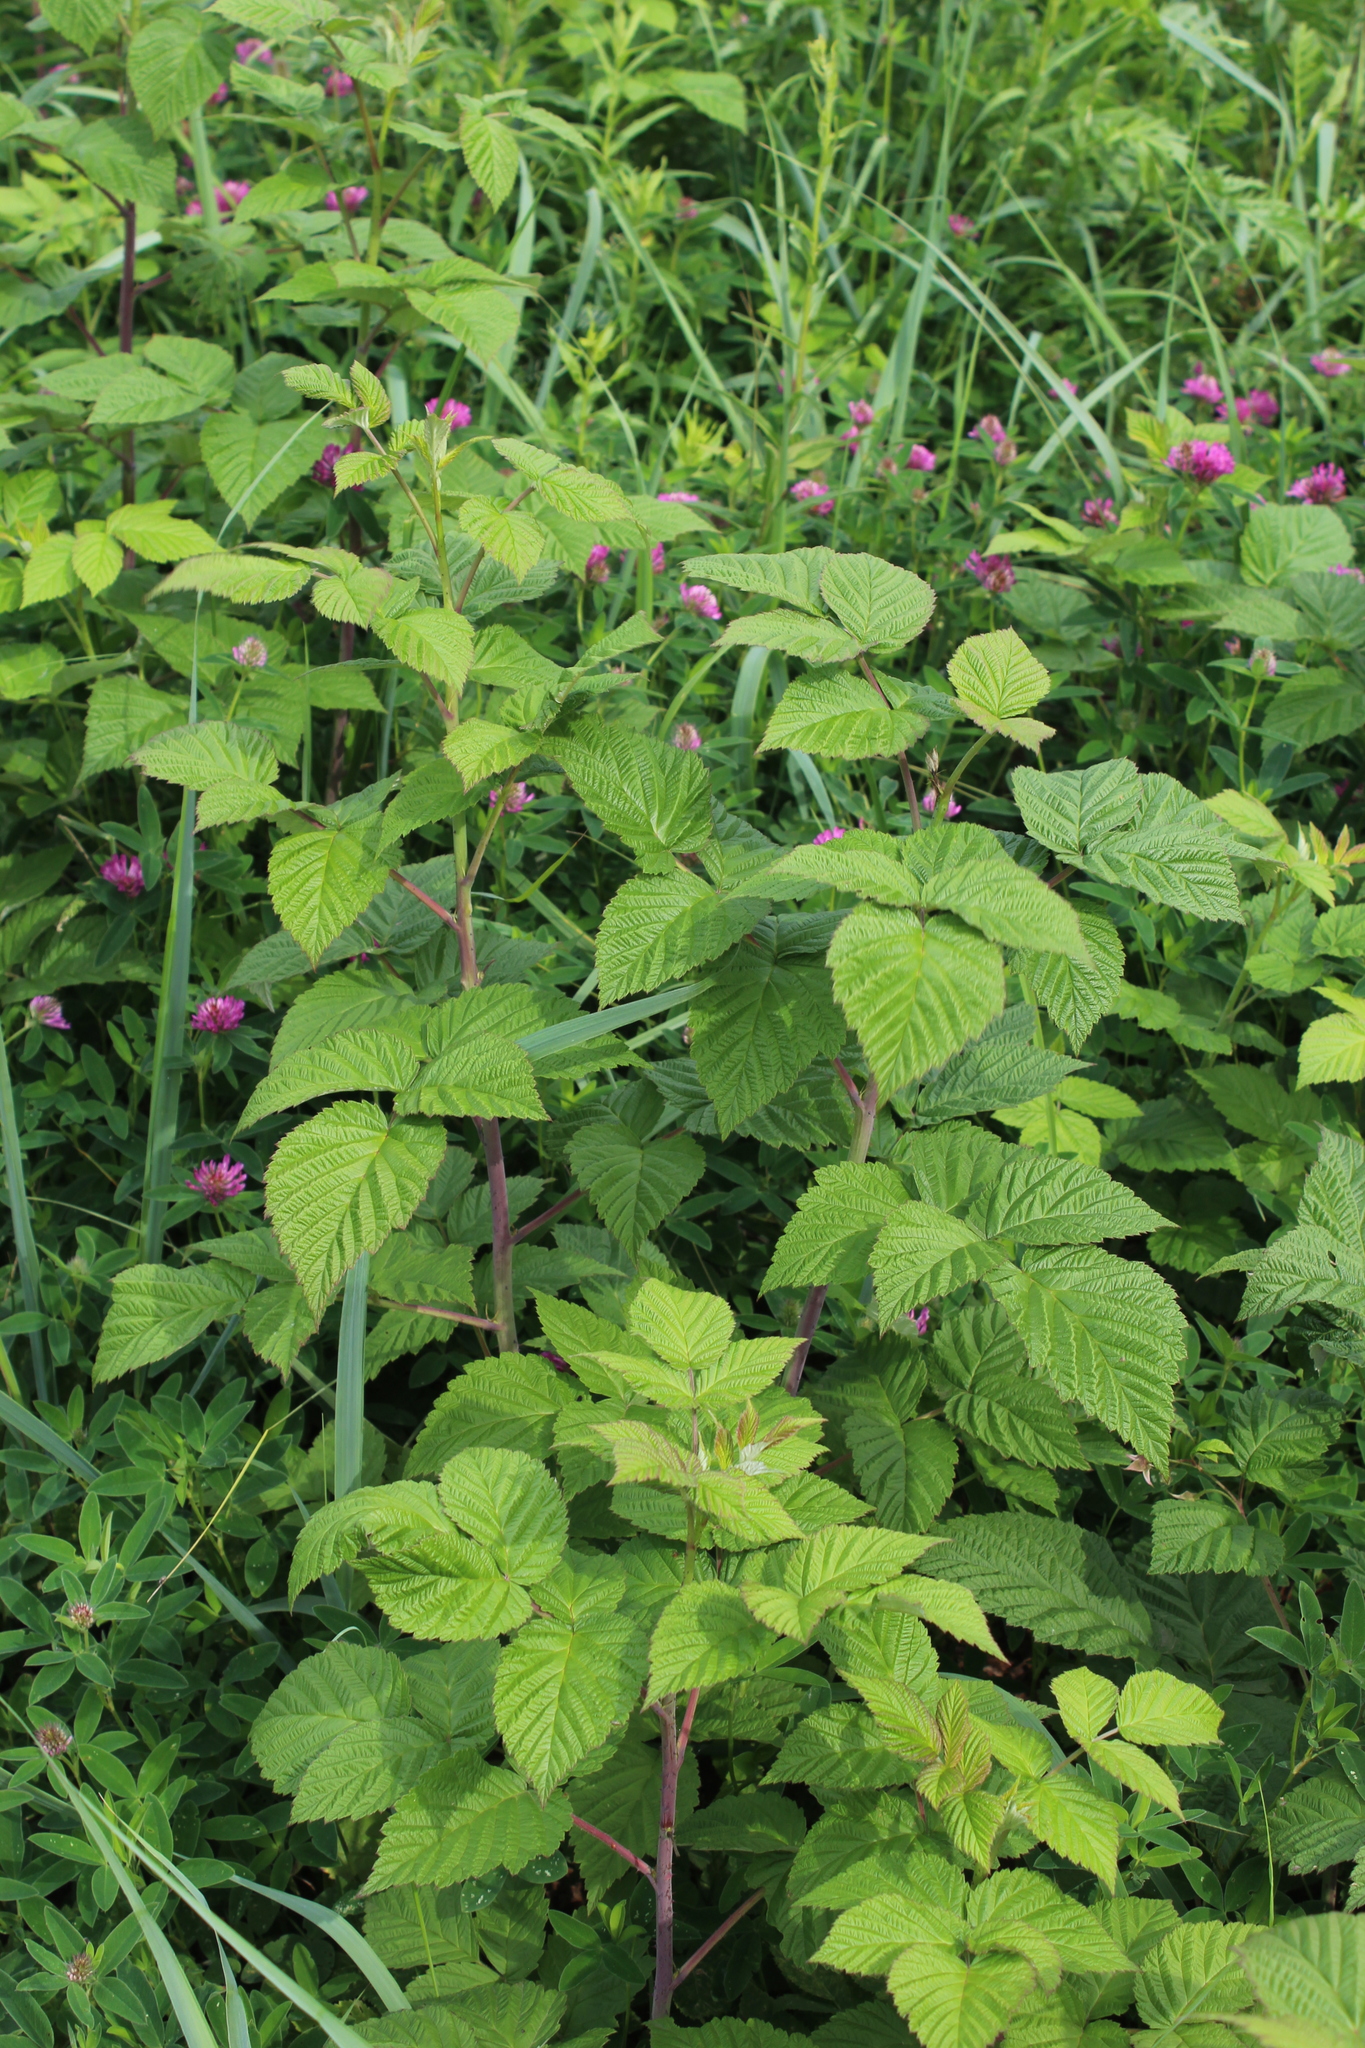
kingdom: Plantae
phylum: Tracheophyta
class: Magnoliopsida
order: Rosales
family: Rosaceae
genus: Rubus
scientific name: Rubus idaeus
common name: Raspberry
